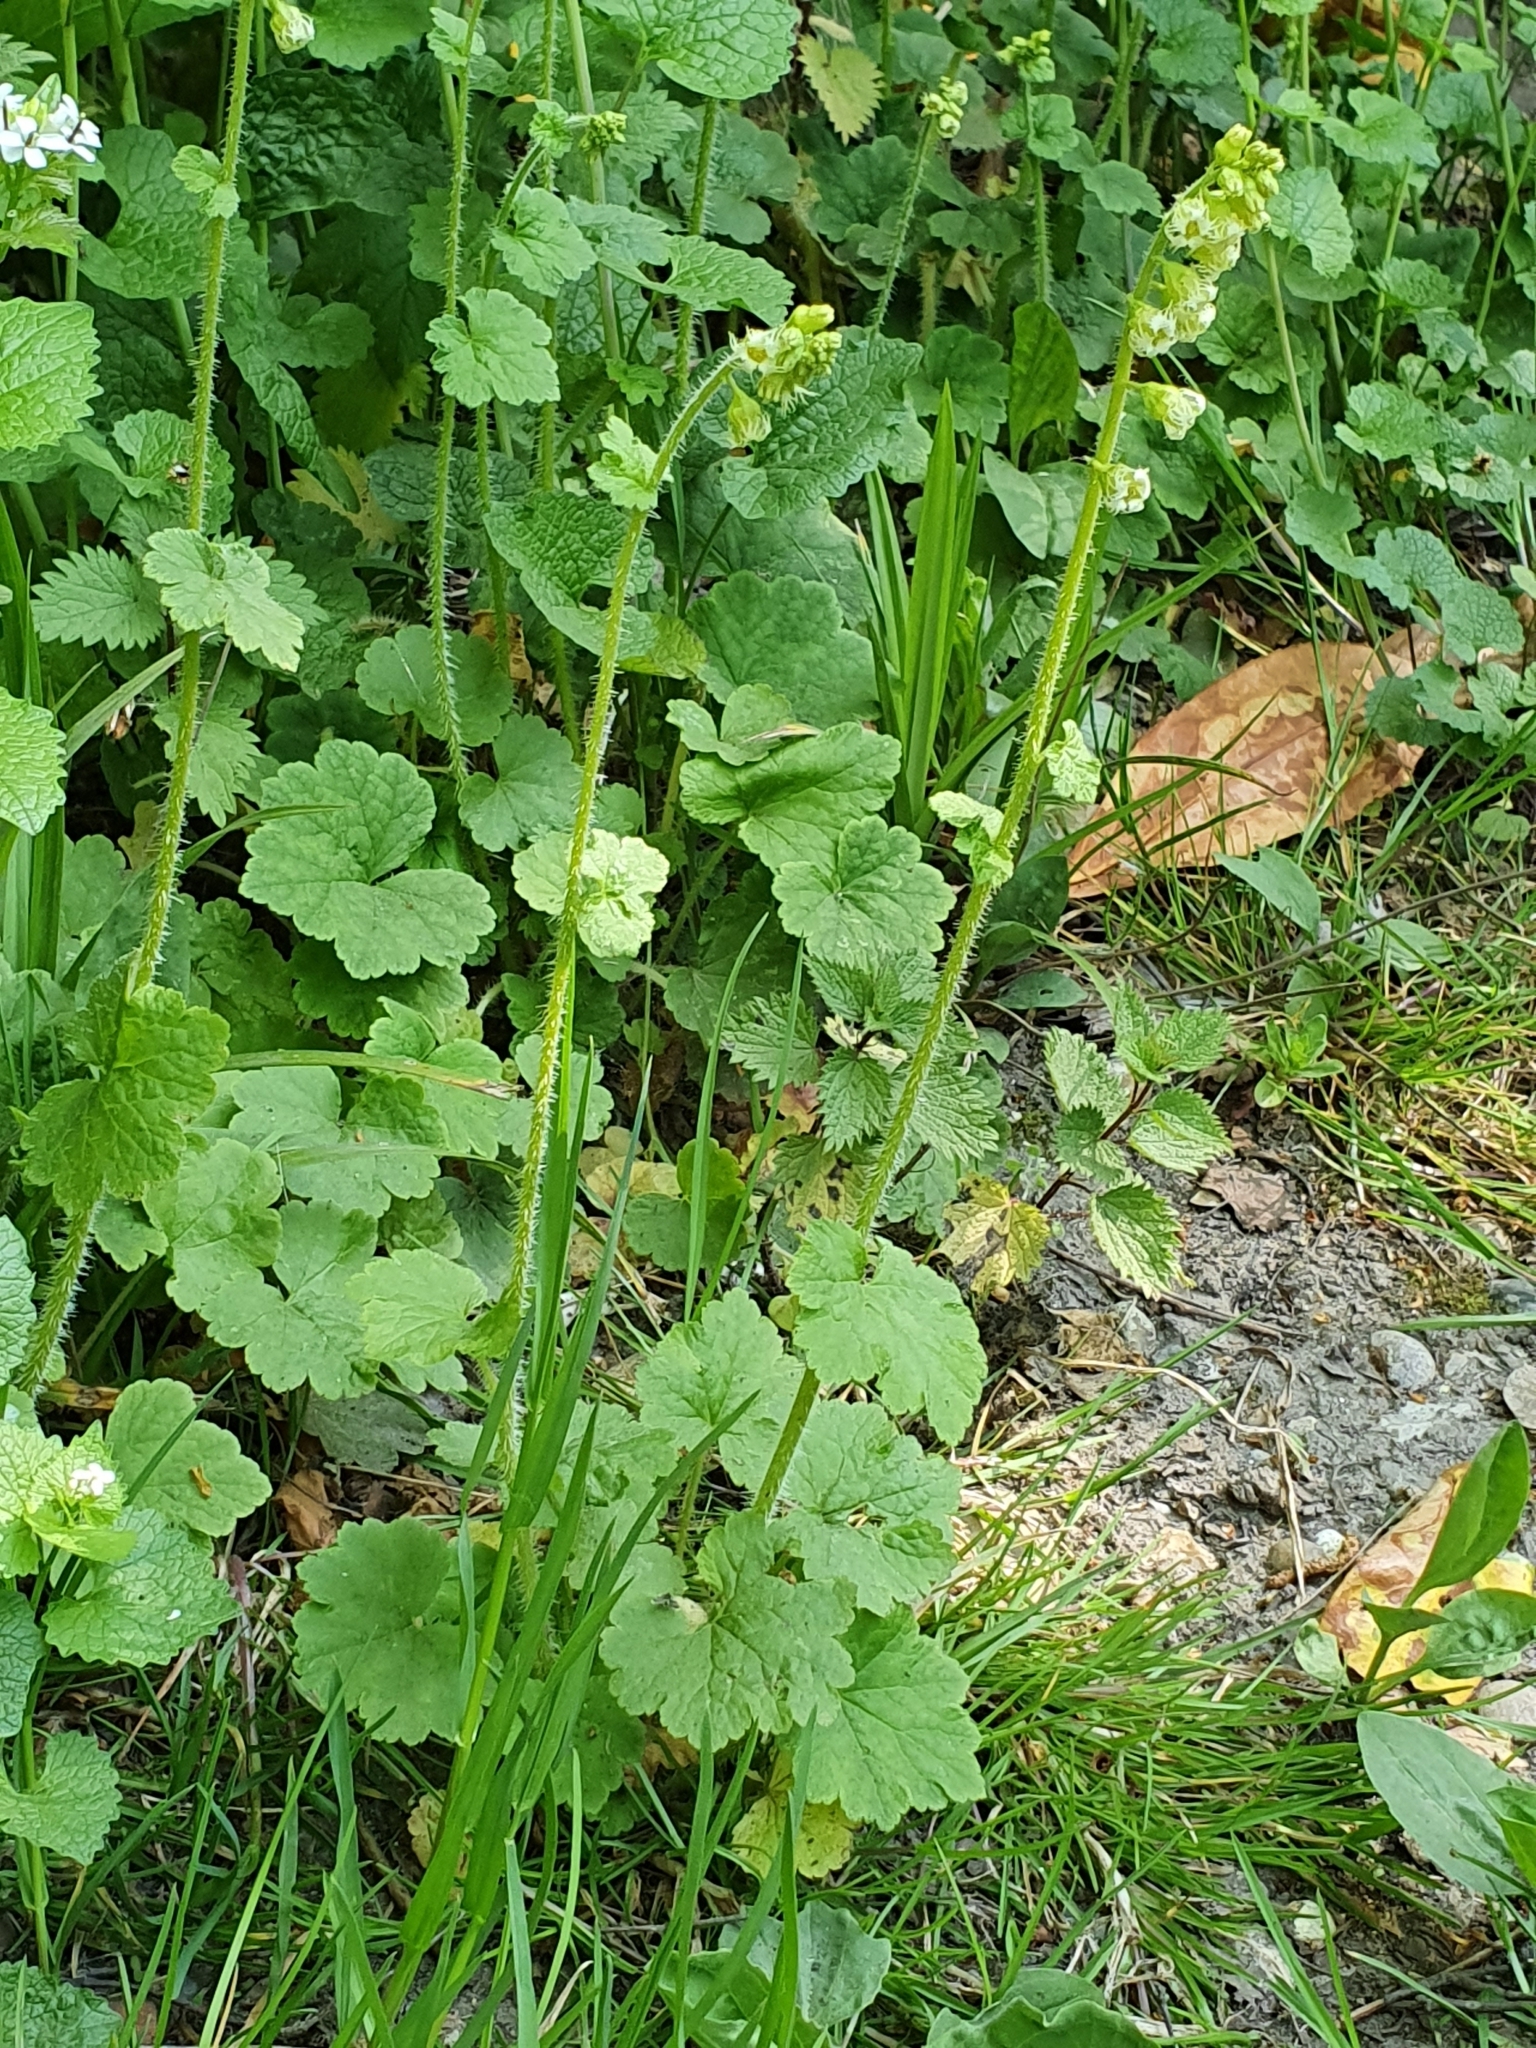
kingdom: Plantae
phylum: Tracheophyta
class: Magnoliopsida
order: Saxifragales
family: Saxifragaceae
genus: Tellima
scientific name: Tellima grandiflora
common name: Fringecups
